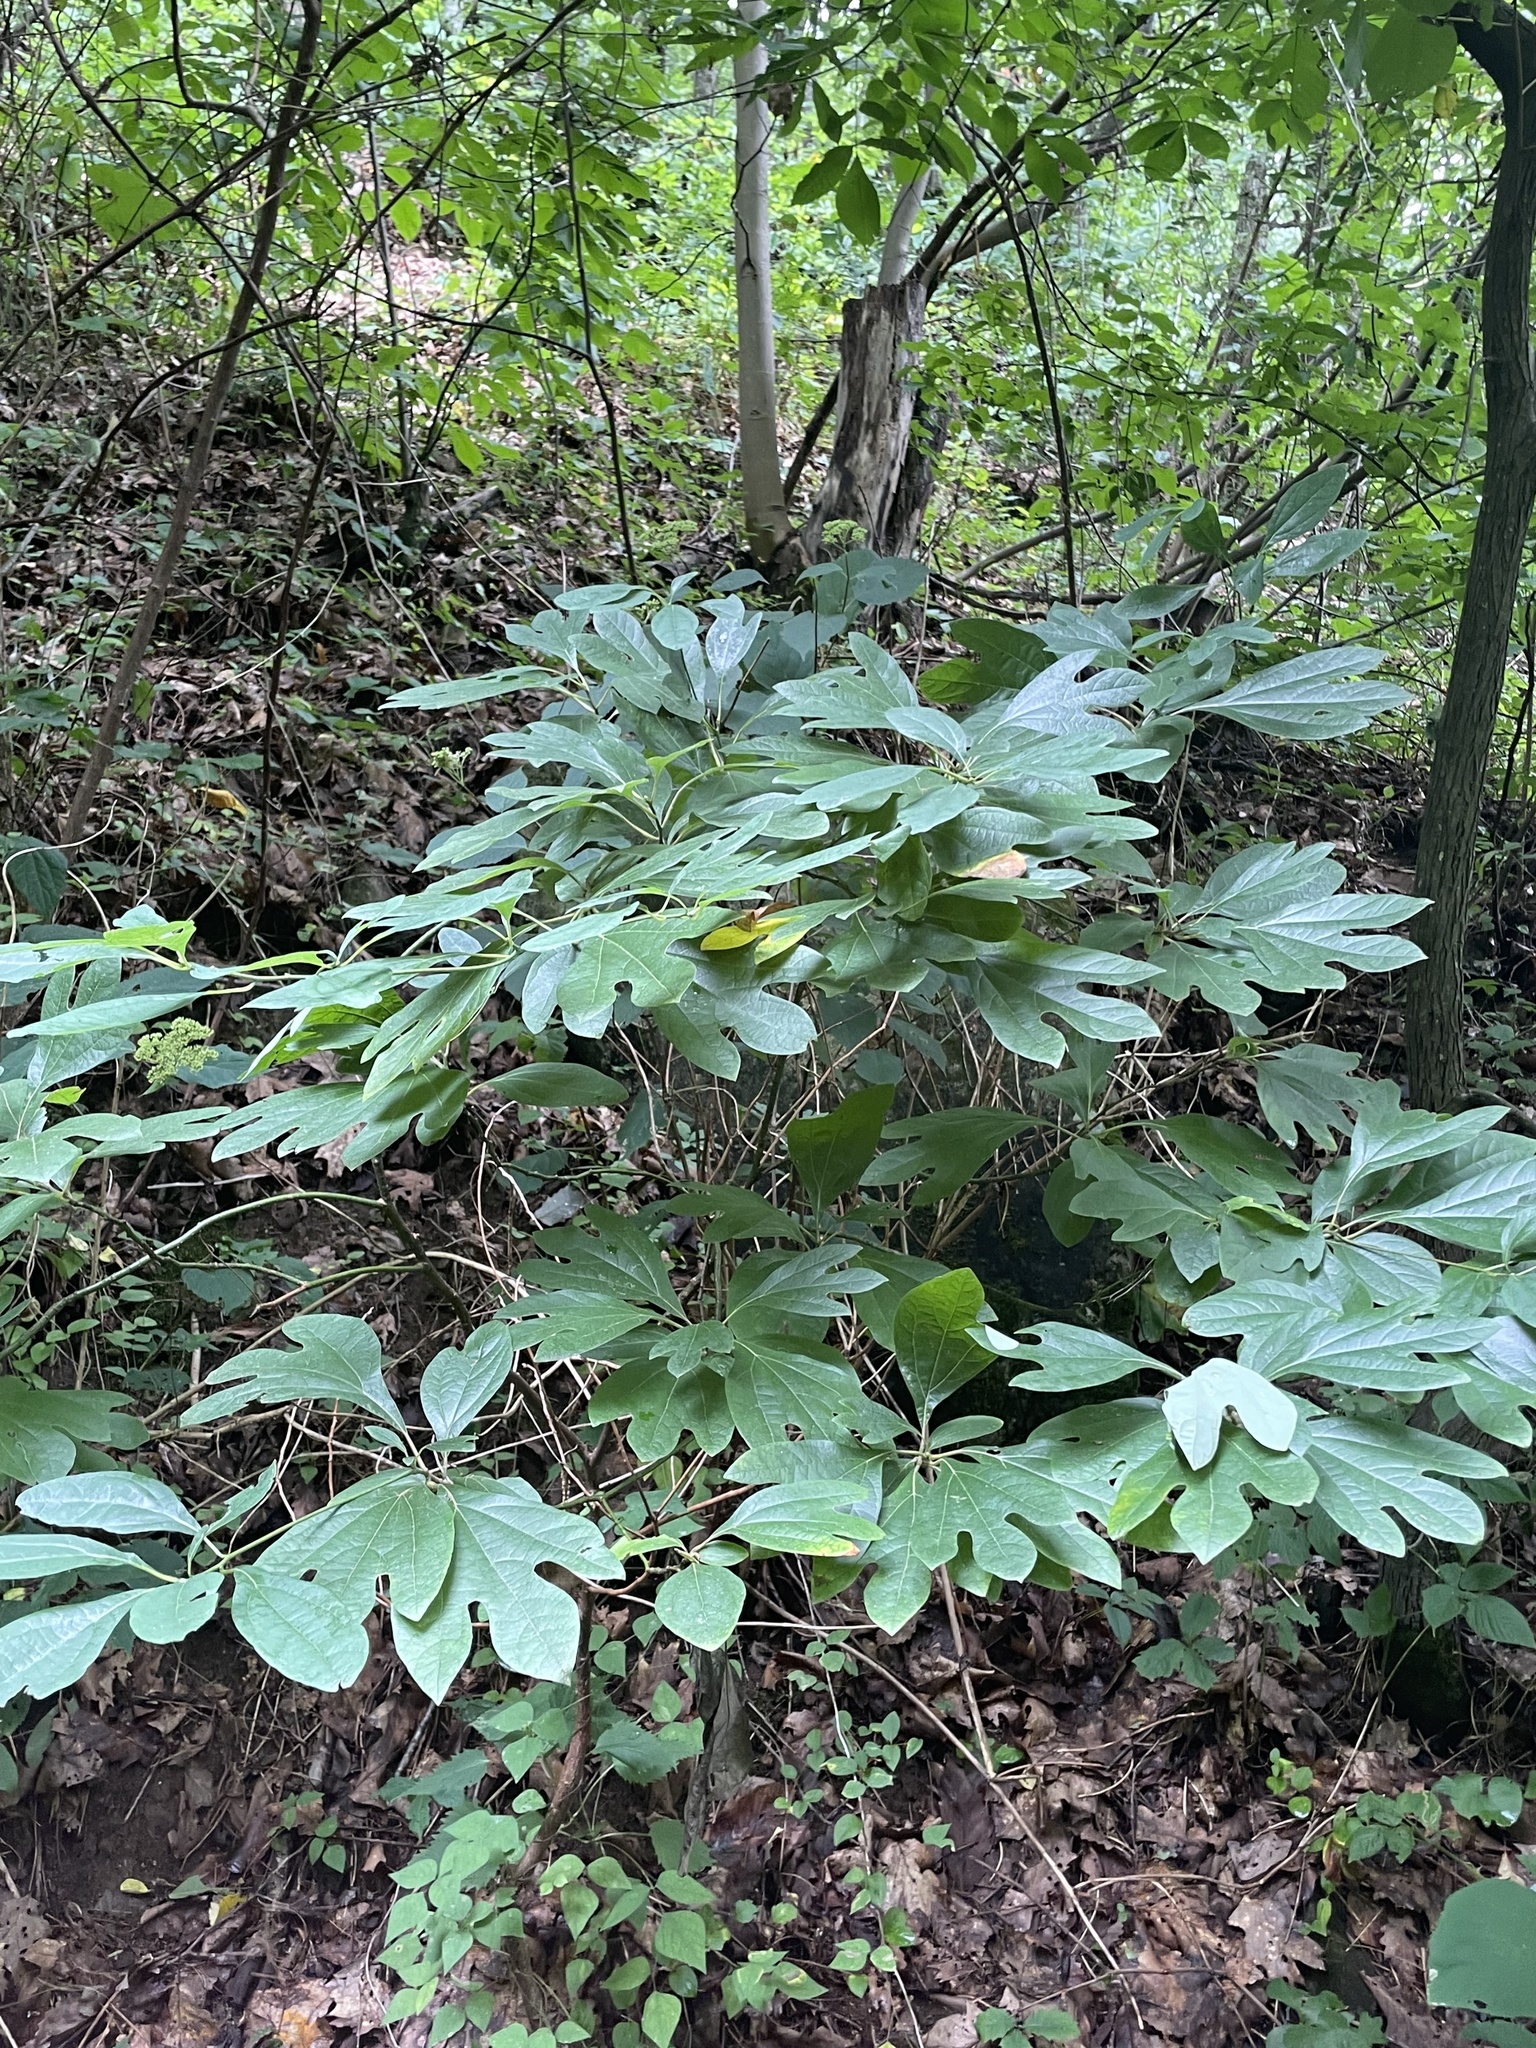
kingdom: Plantae
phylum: Tracheophyta
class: Magnoliopsida
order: Laurales
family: Lauraceae
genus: Sassafras
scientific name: Sassafras albidum
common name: Sassafras
